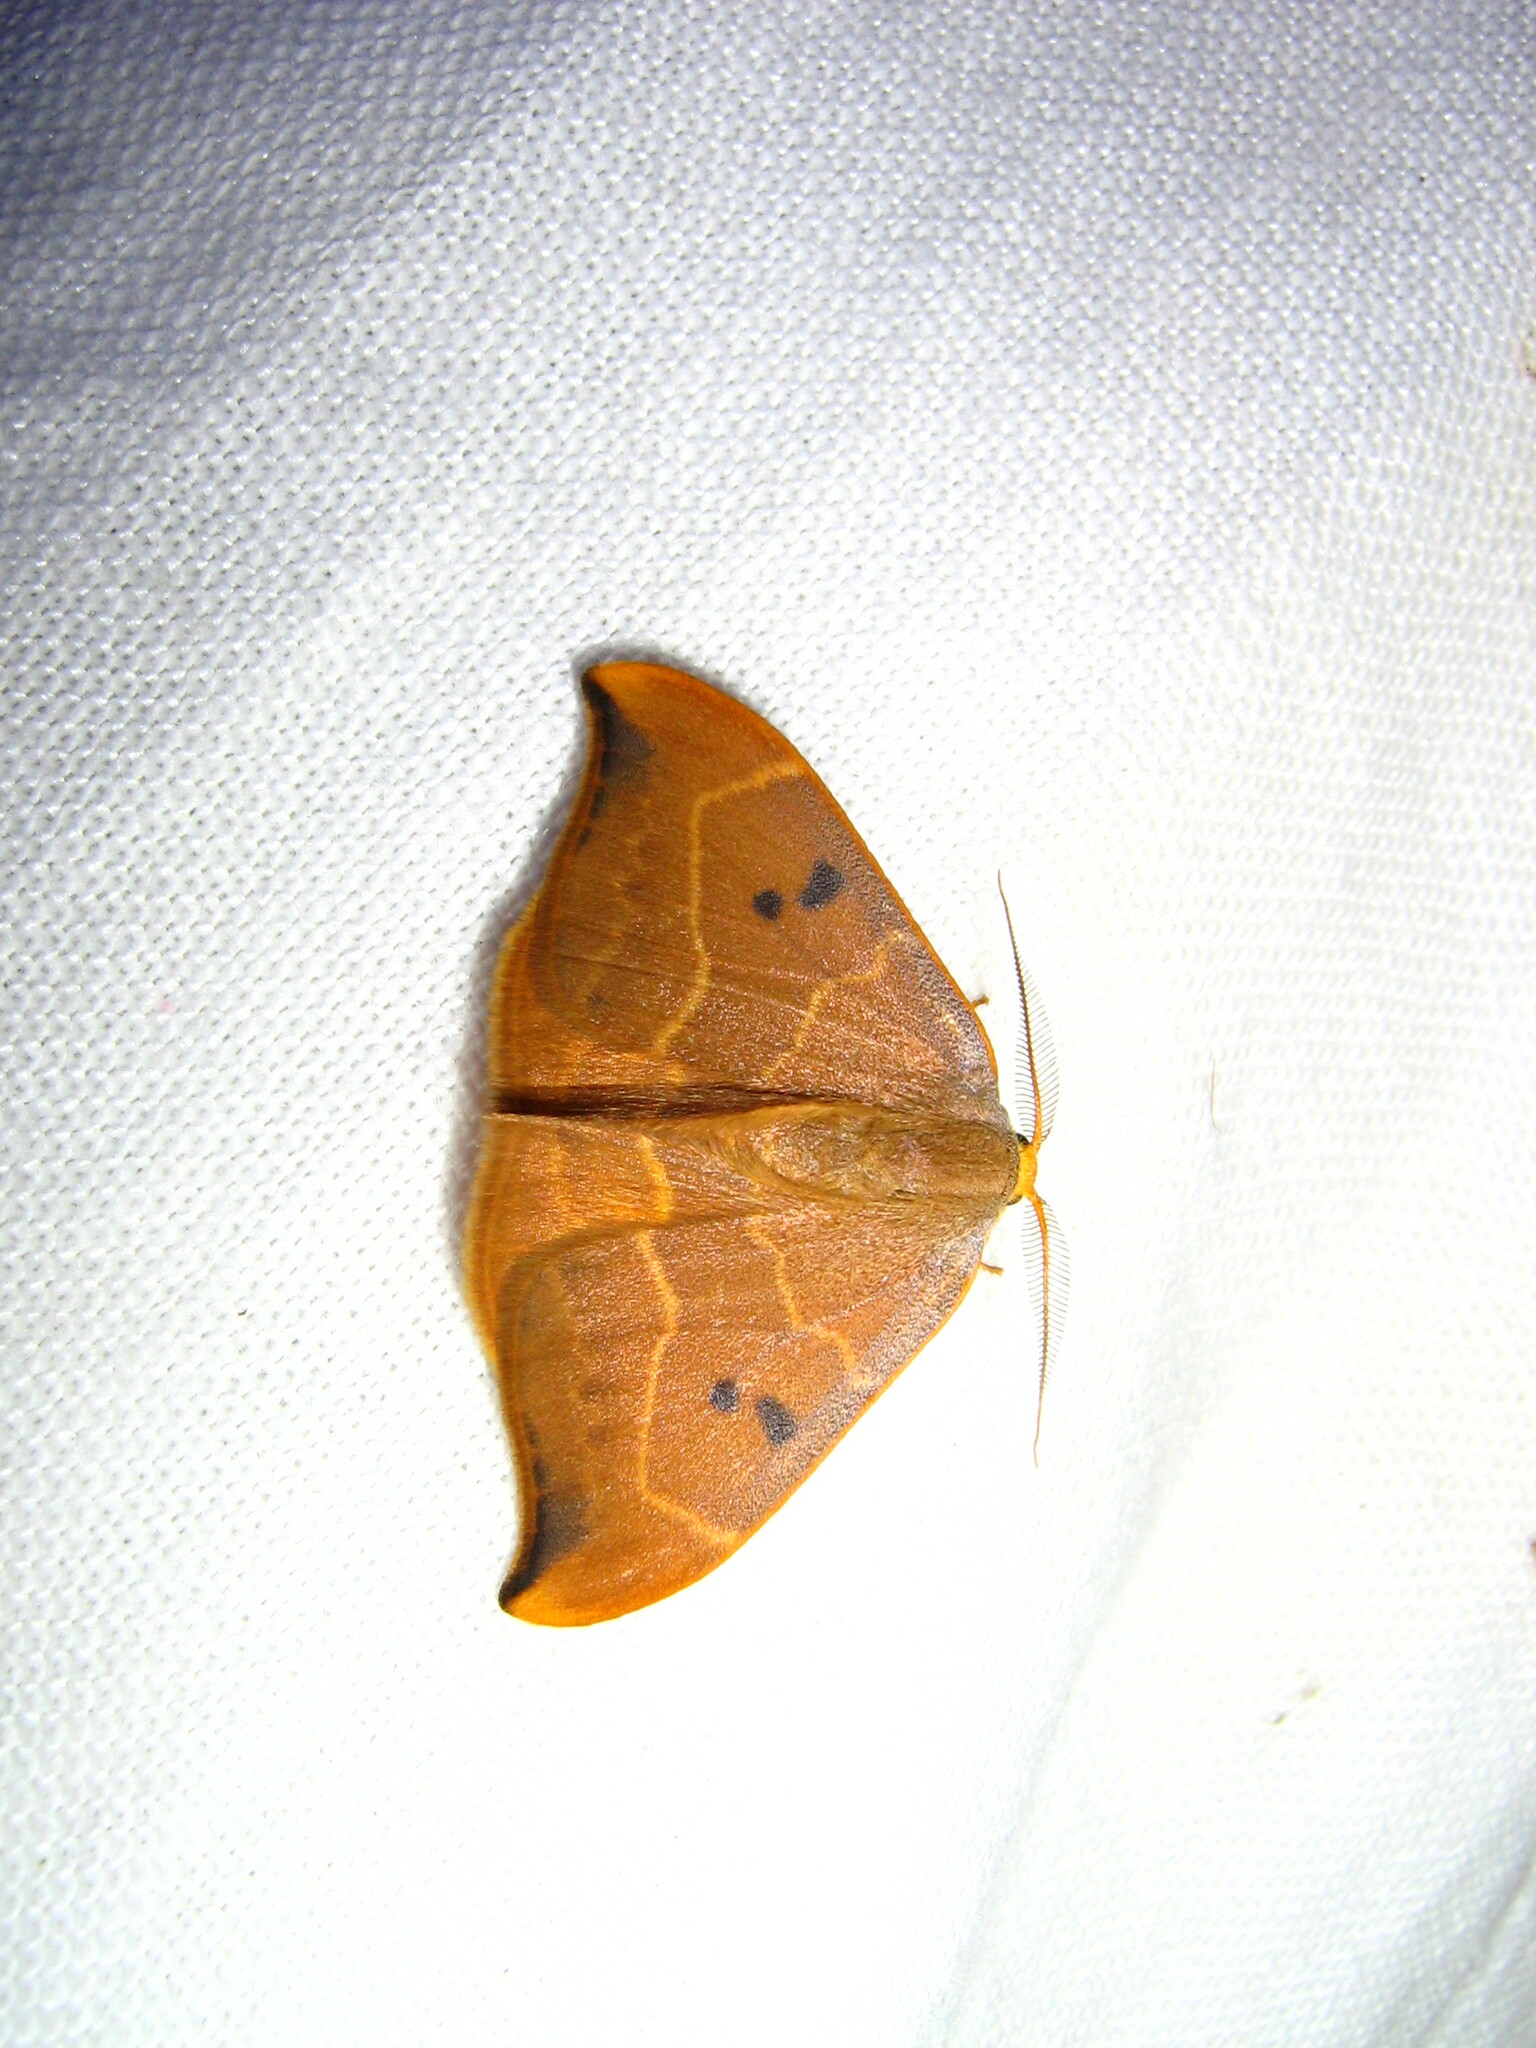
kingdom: Animalia
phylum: Arthropoda
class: Insecta
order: Lepidoptera
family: Drepanidae
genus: Watsonalla
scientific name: Watsonalla binaria
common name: Oak hook-tip
